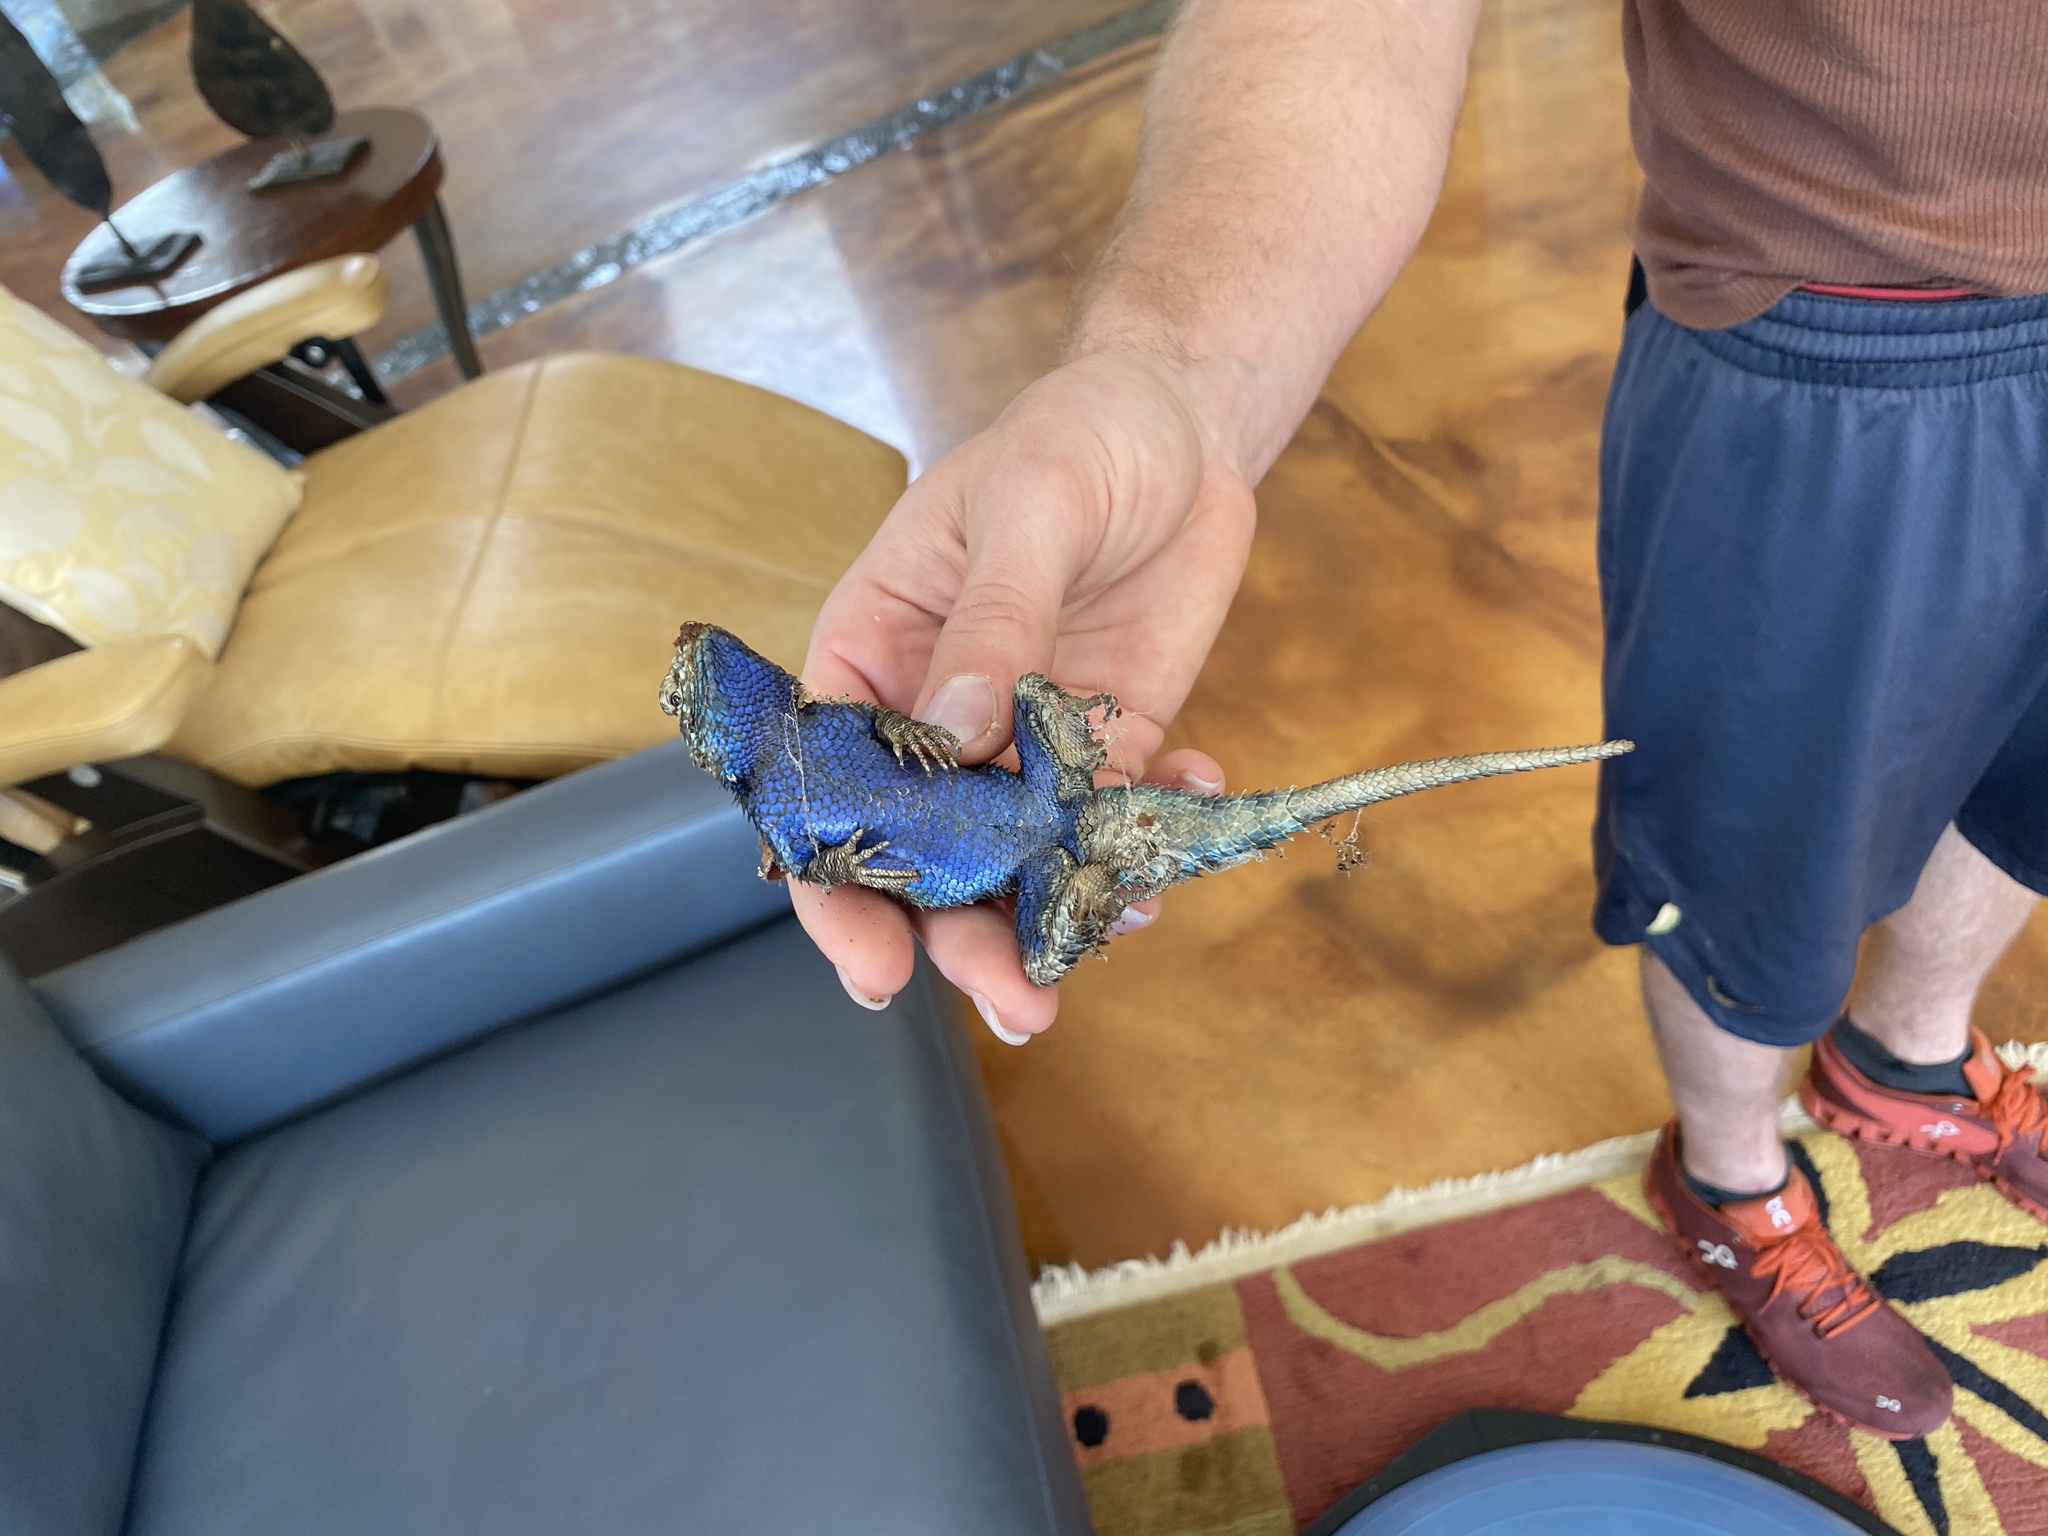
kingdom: Animalia
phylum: Chordata
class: Squamata
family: Phrynosomatidae
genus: Sceloporus
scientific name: Sceloporus orcutti
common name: Granite spiny lizard
